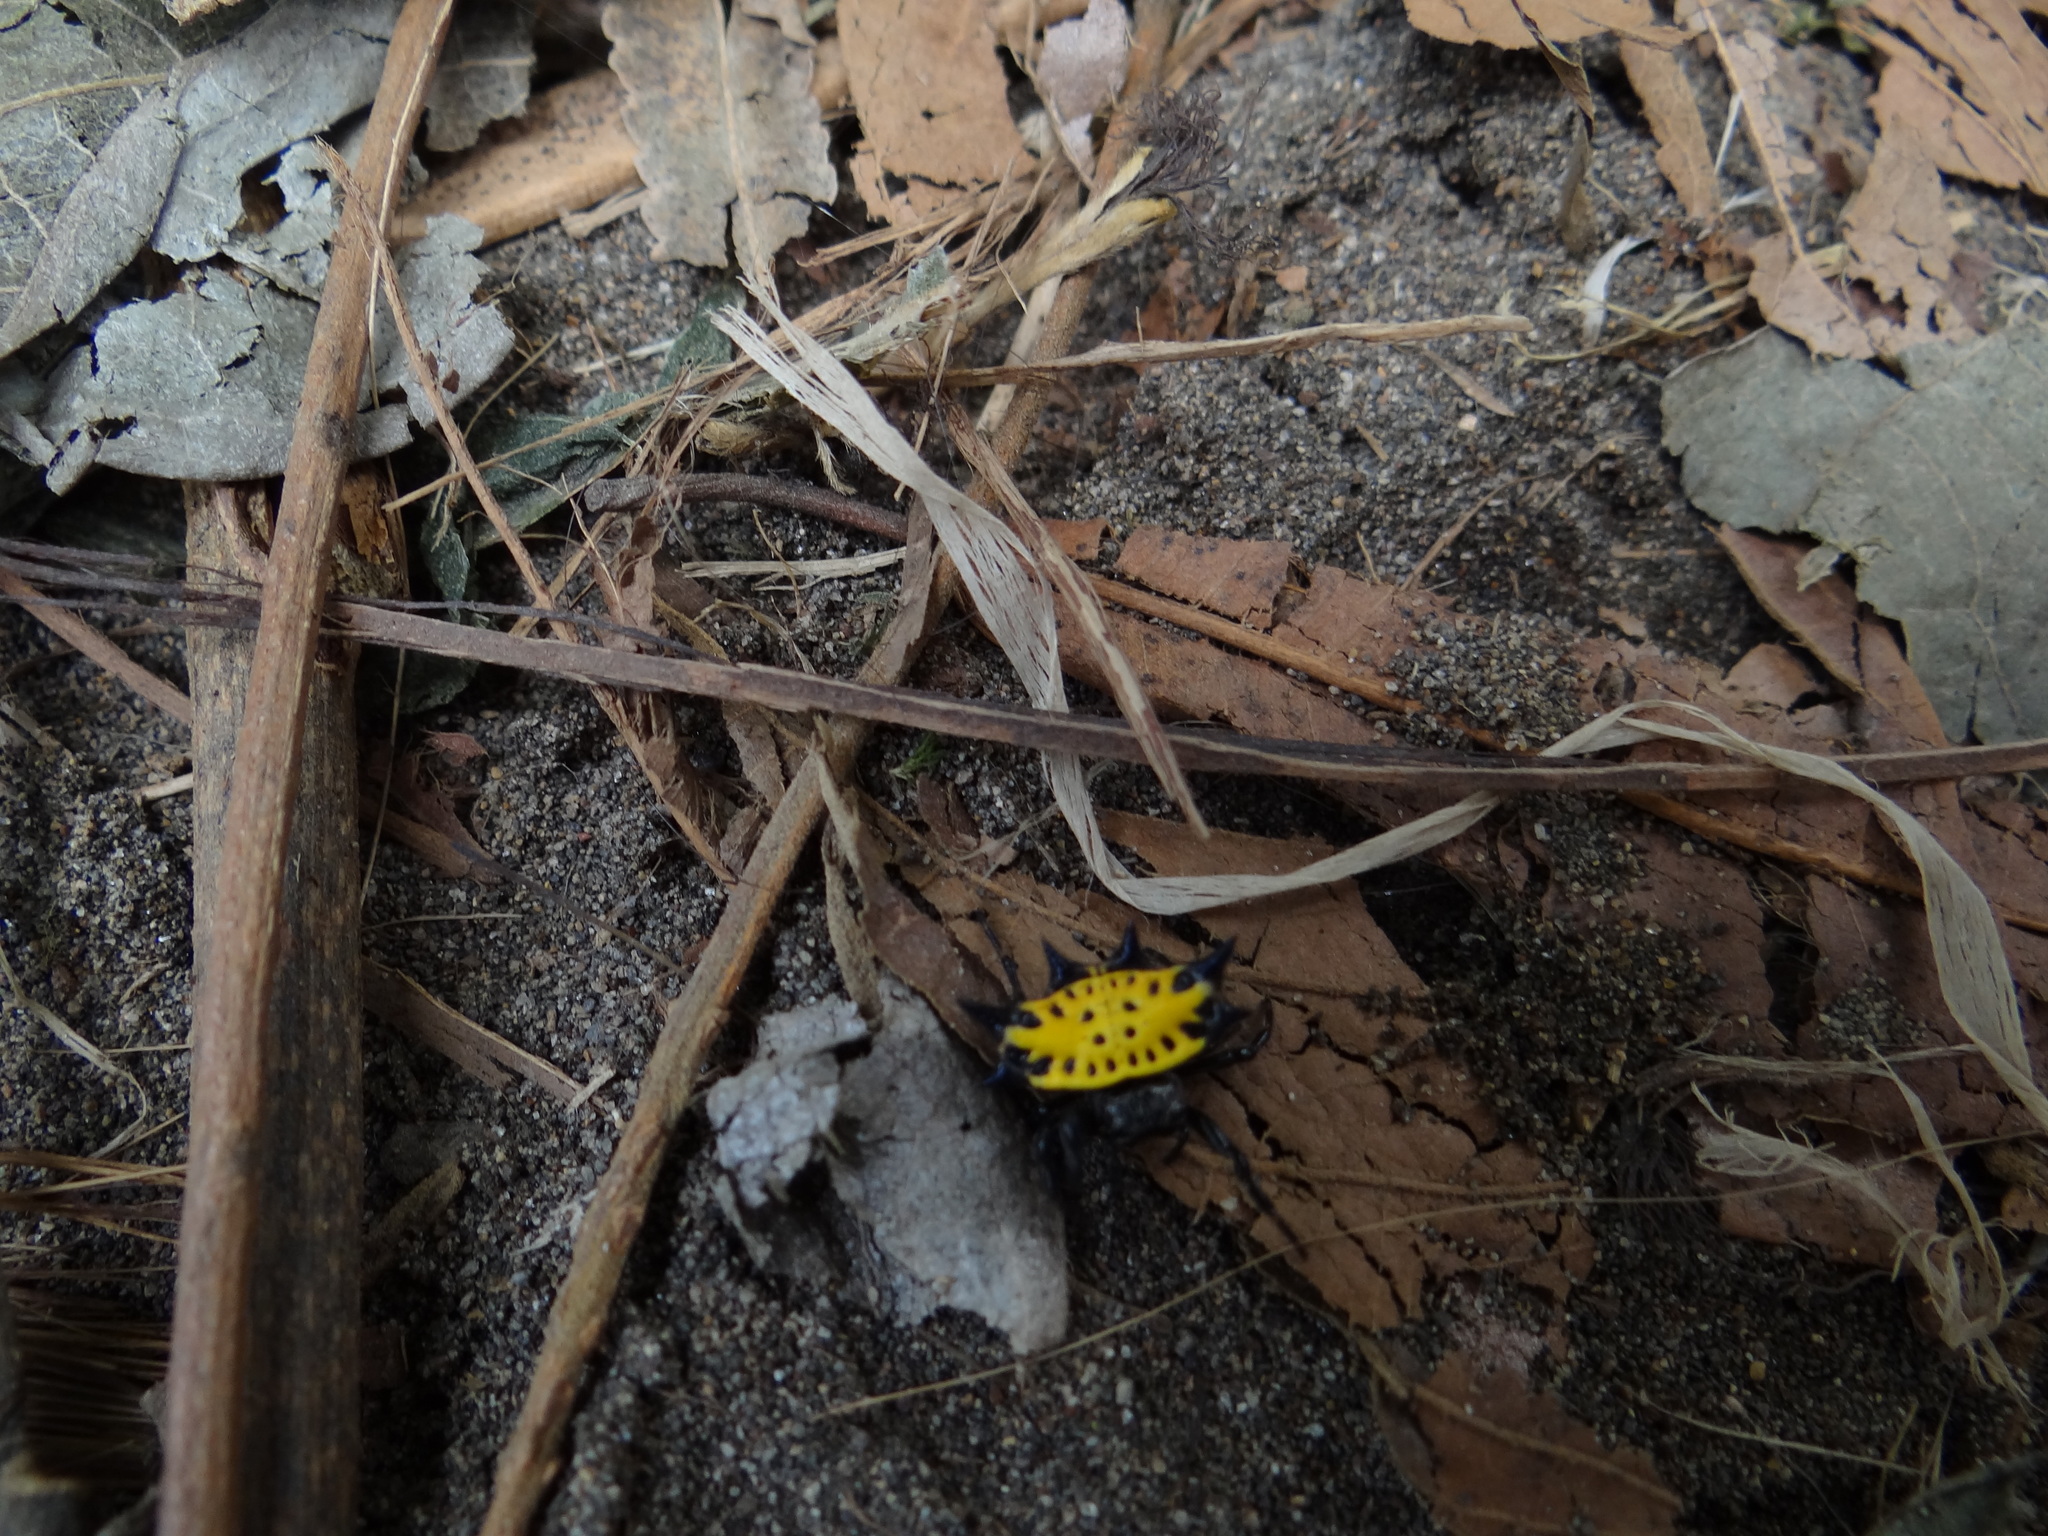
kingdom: Animalia
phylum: Arthropoda
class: Arachnida
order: Araneae
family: Araneidae
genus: Gasteracantha
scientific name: Gasteracantha cancriformis
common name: Orb weavers
